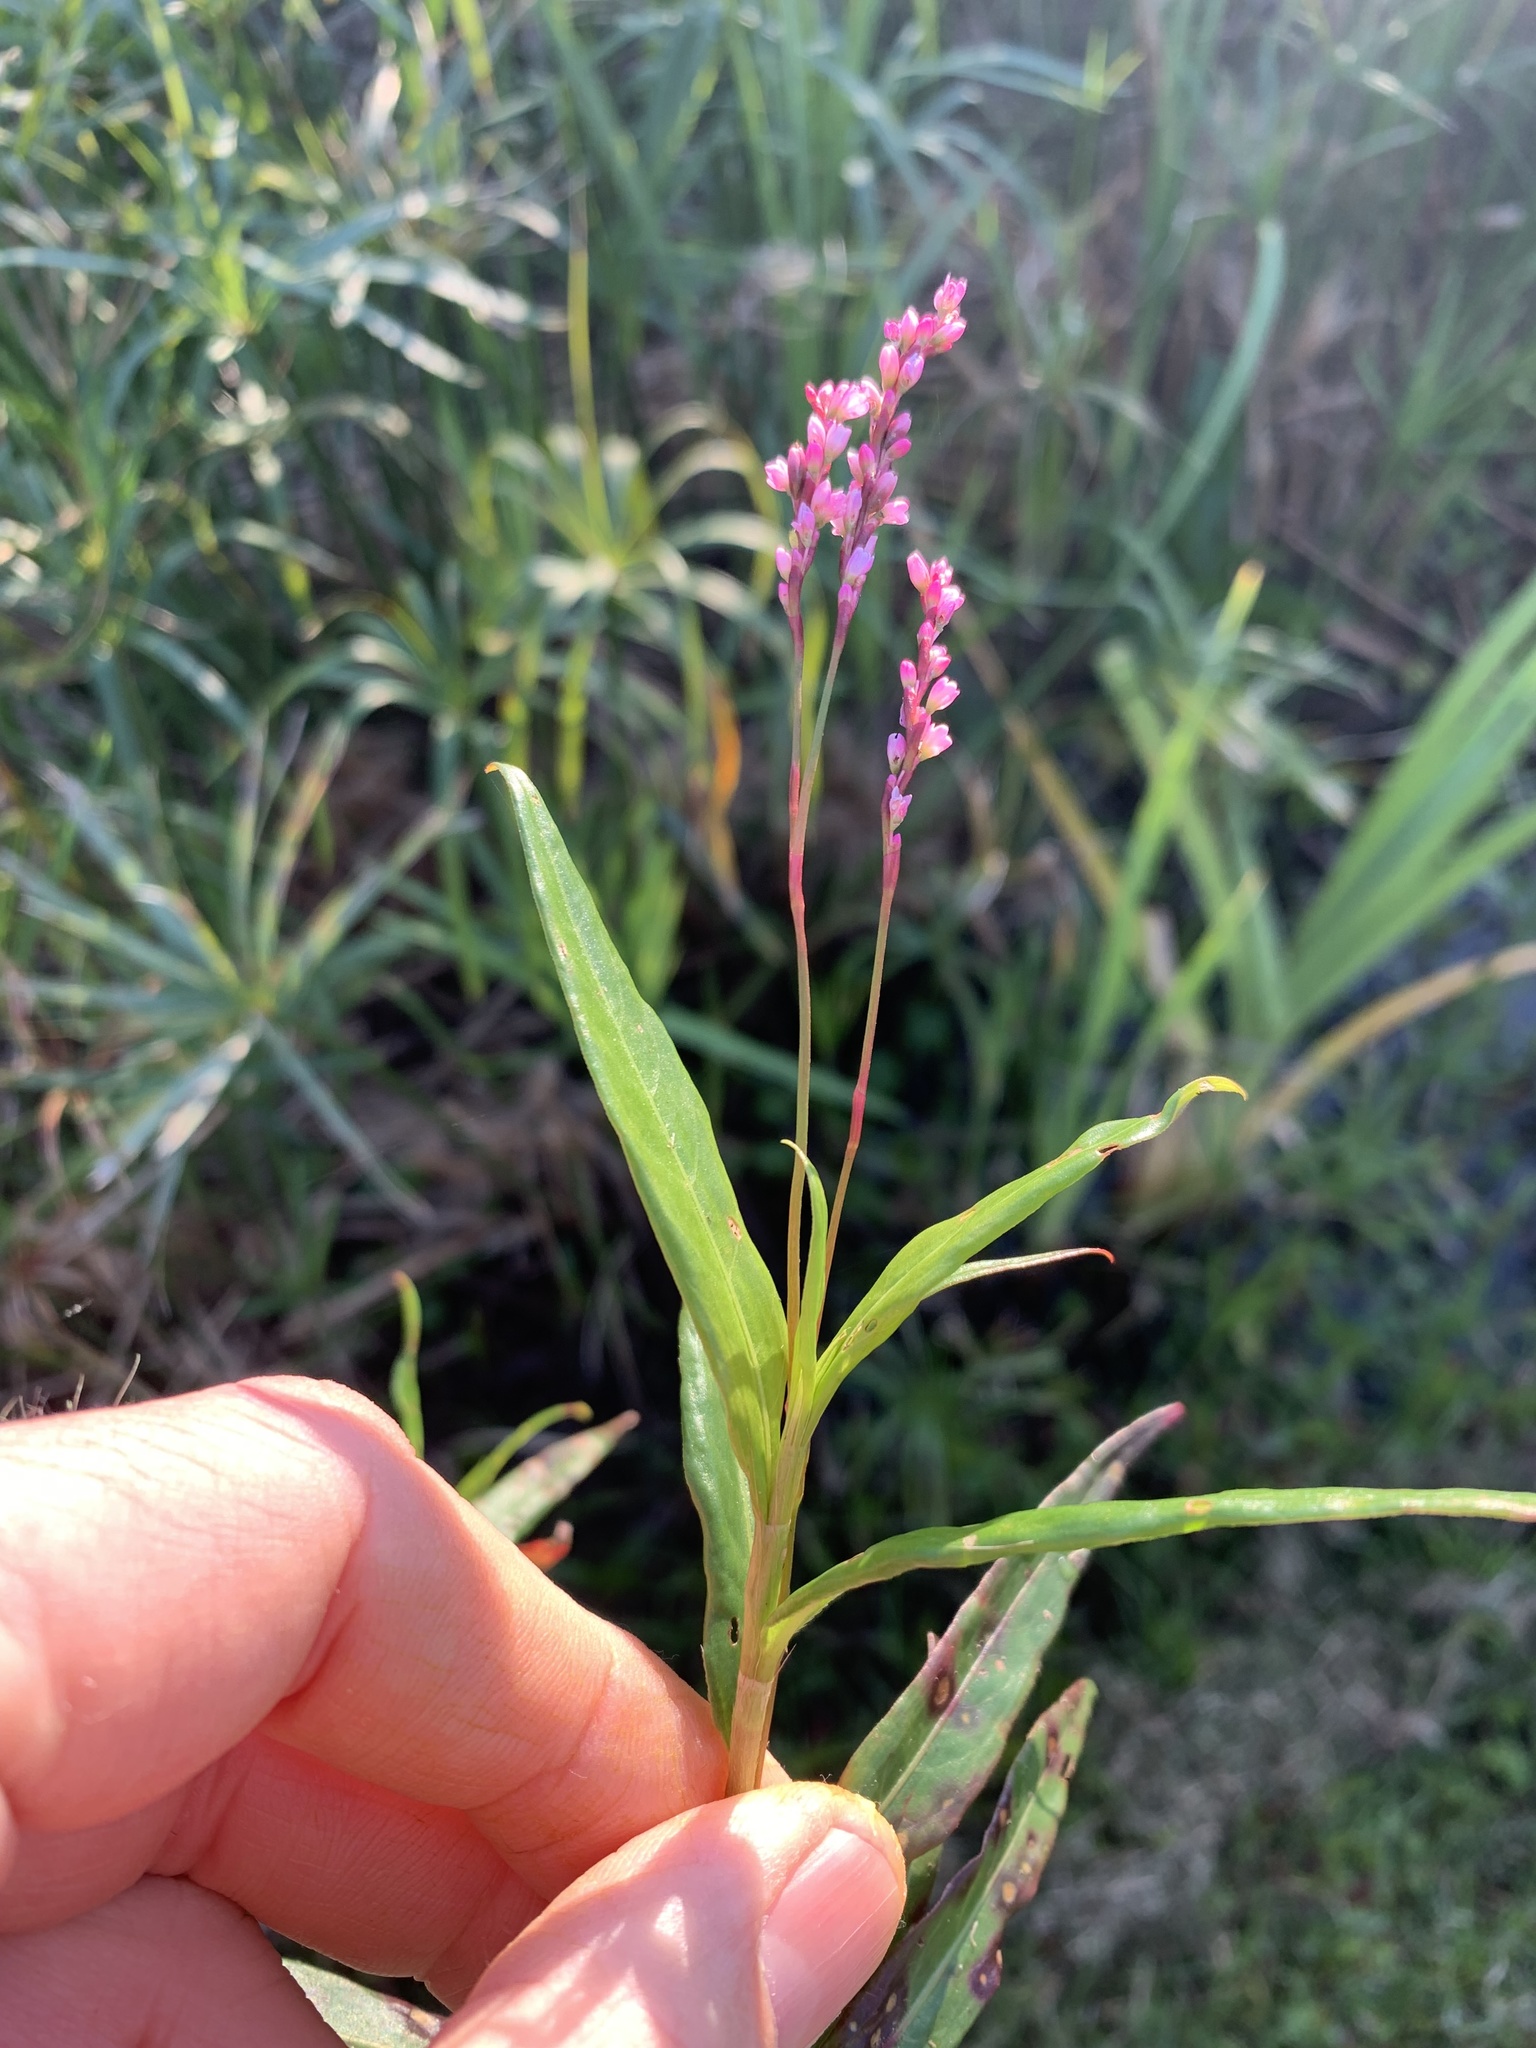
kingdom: Plantae
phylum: Tracheophyta
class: Magnoliopsida
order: Caryophyllales
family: Polygonaceae
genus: Persicaria
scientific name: Persicaria decipiens
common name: Willow-weed
